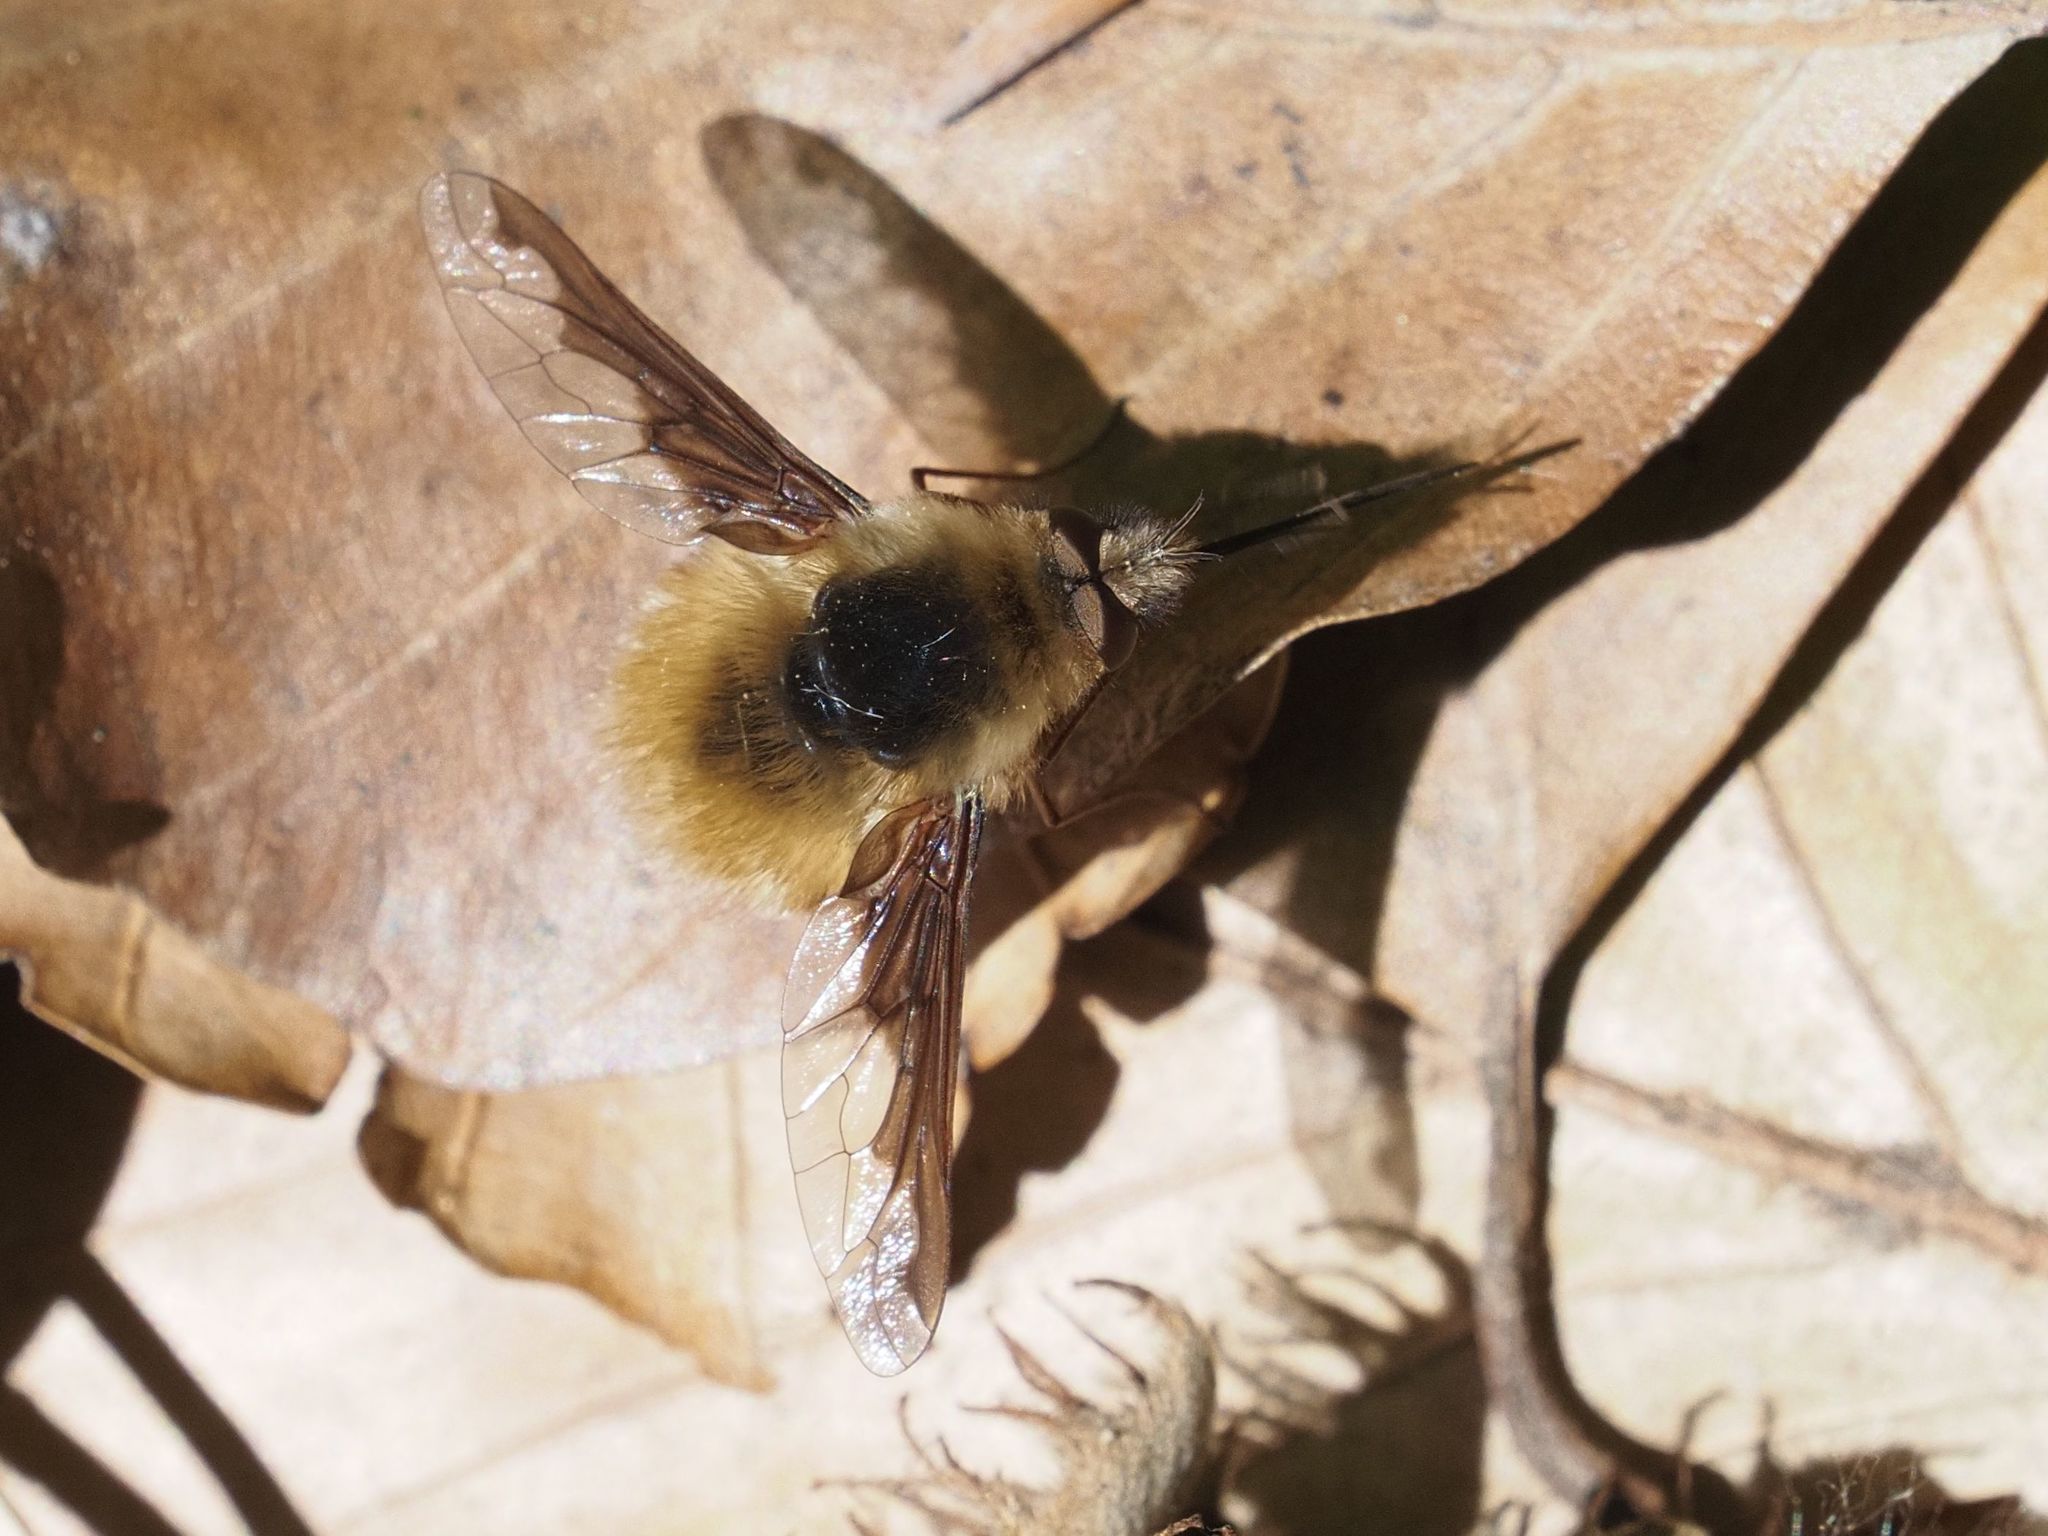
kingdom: Animalia
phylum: Arthropoda
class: Insecta
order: Diptera
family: Bombyliidae
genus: Bombylius
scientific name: Bombylius major
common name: Bee fly
